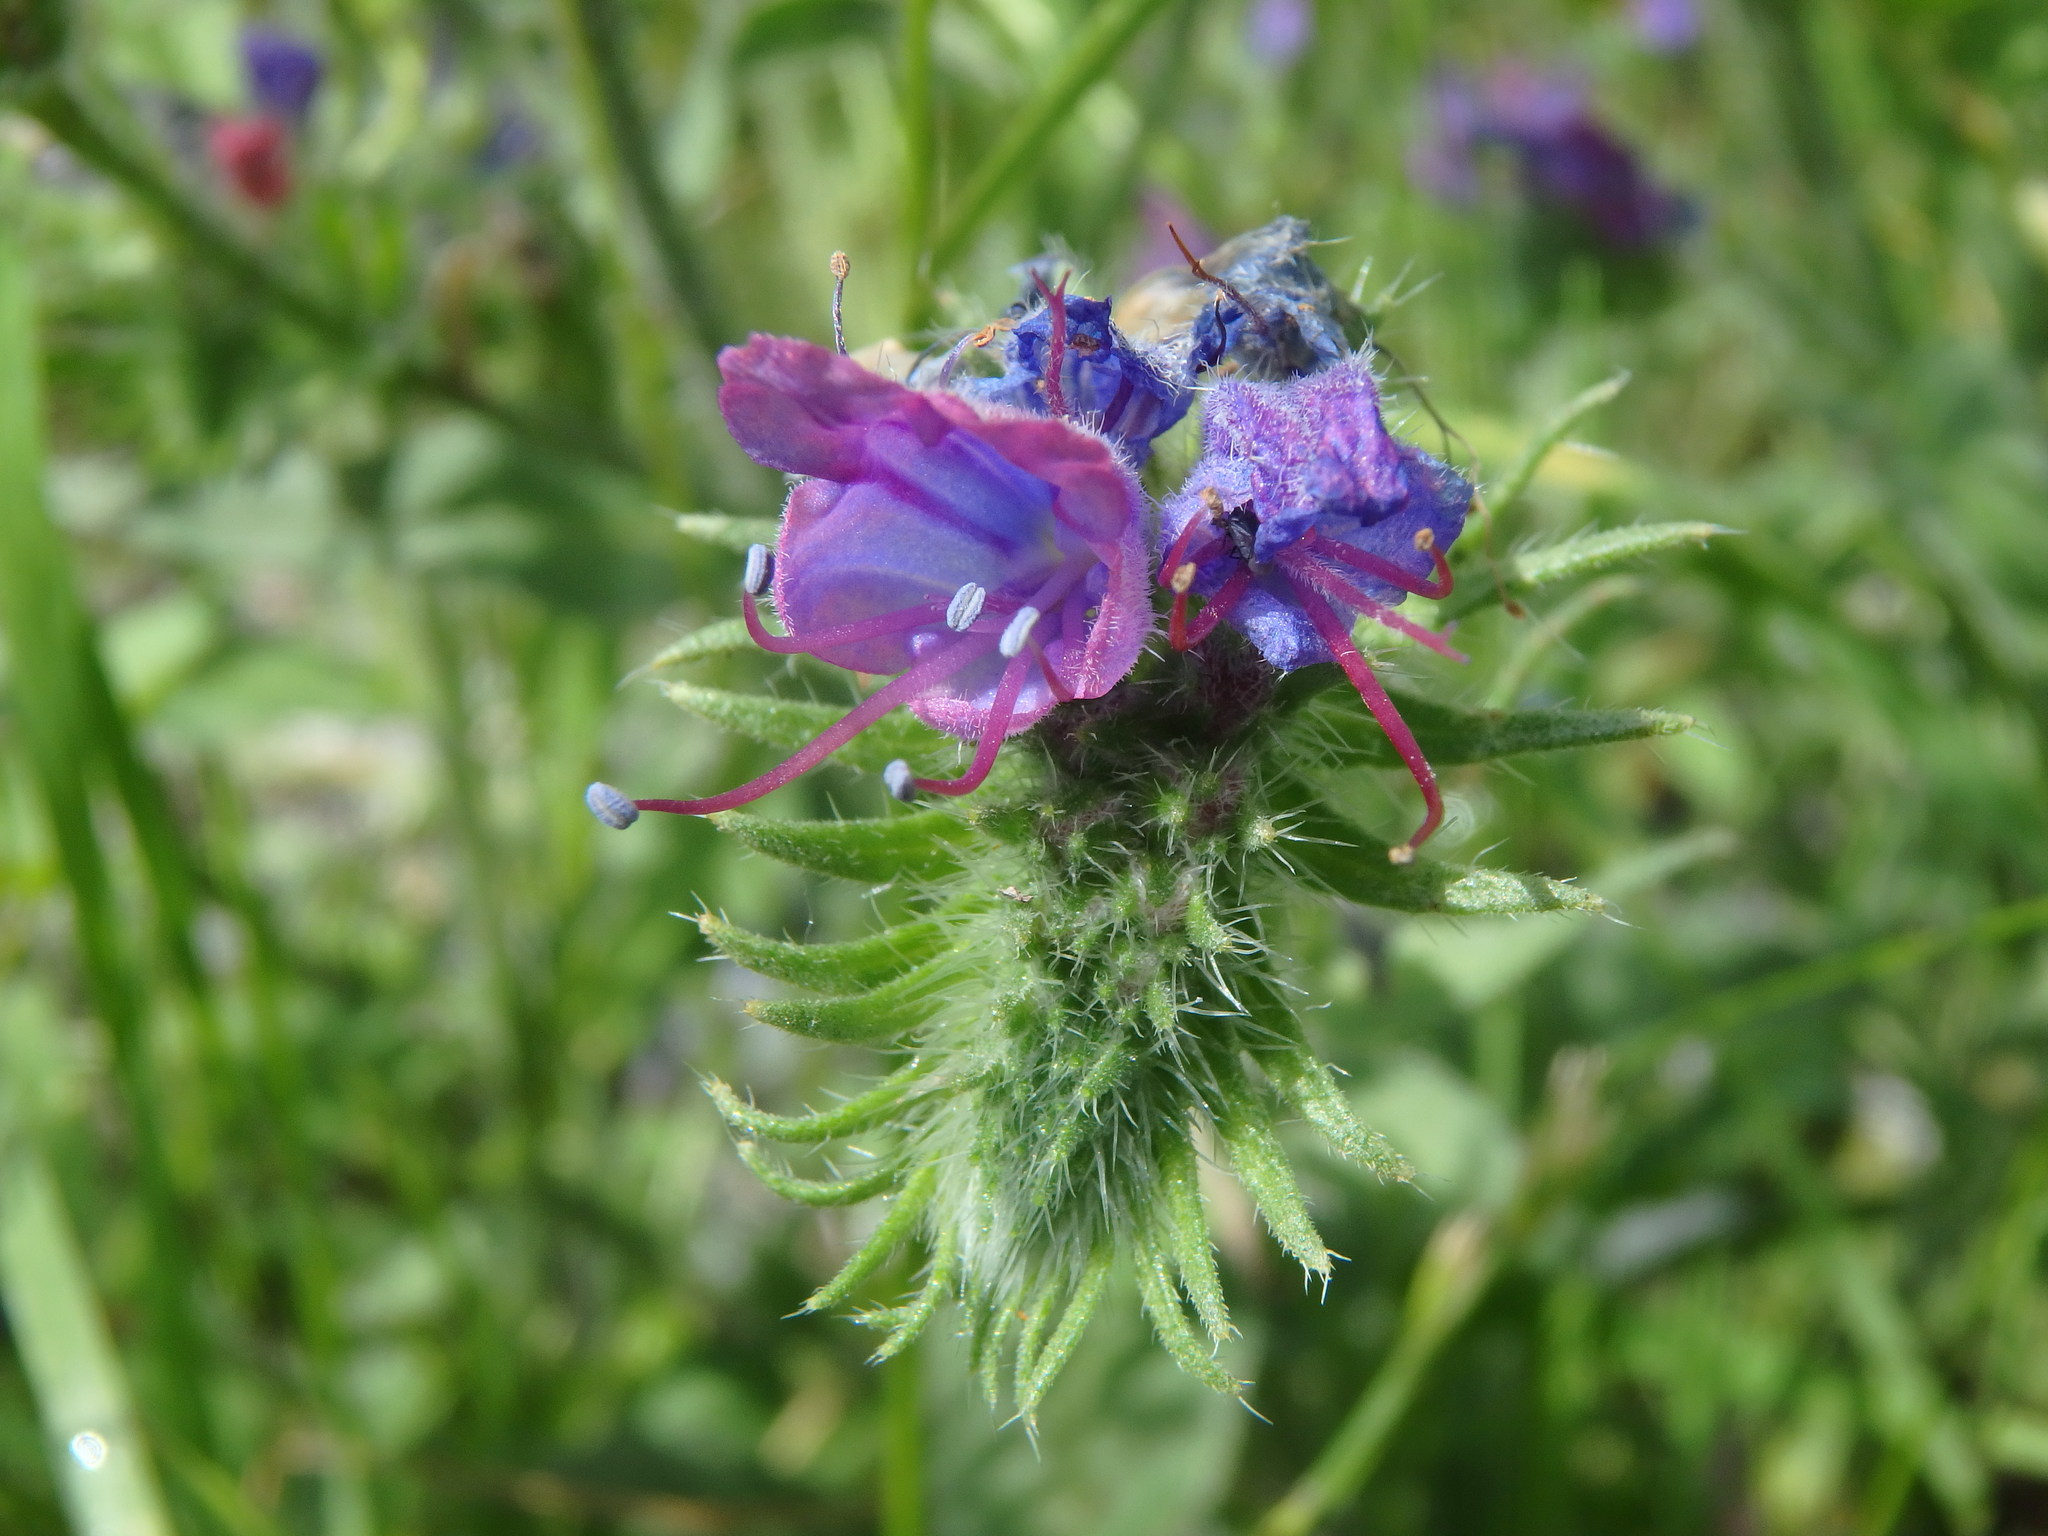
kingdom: Plantae
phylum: Tracheophyta
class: Magnoliopsida
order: Boraginales
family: Boraginaceae
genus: Echium
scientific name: Echium vulgare
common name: Common viper's bugloss
